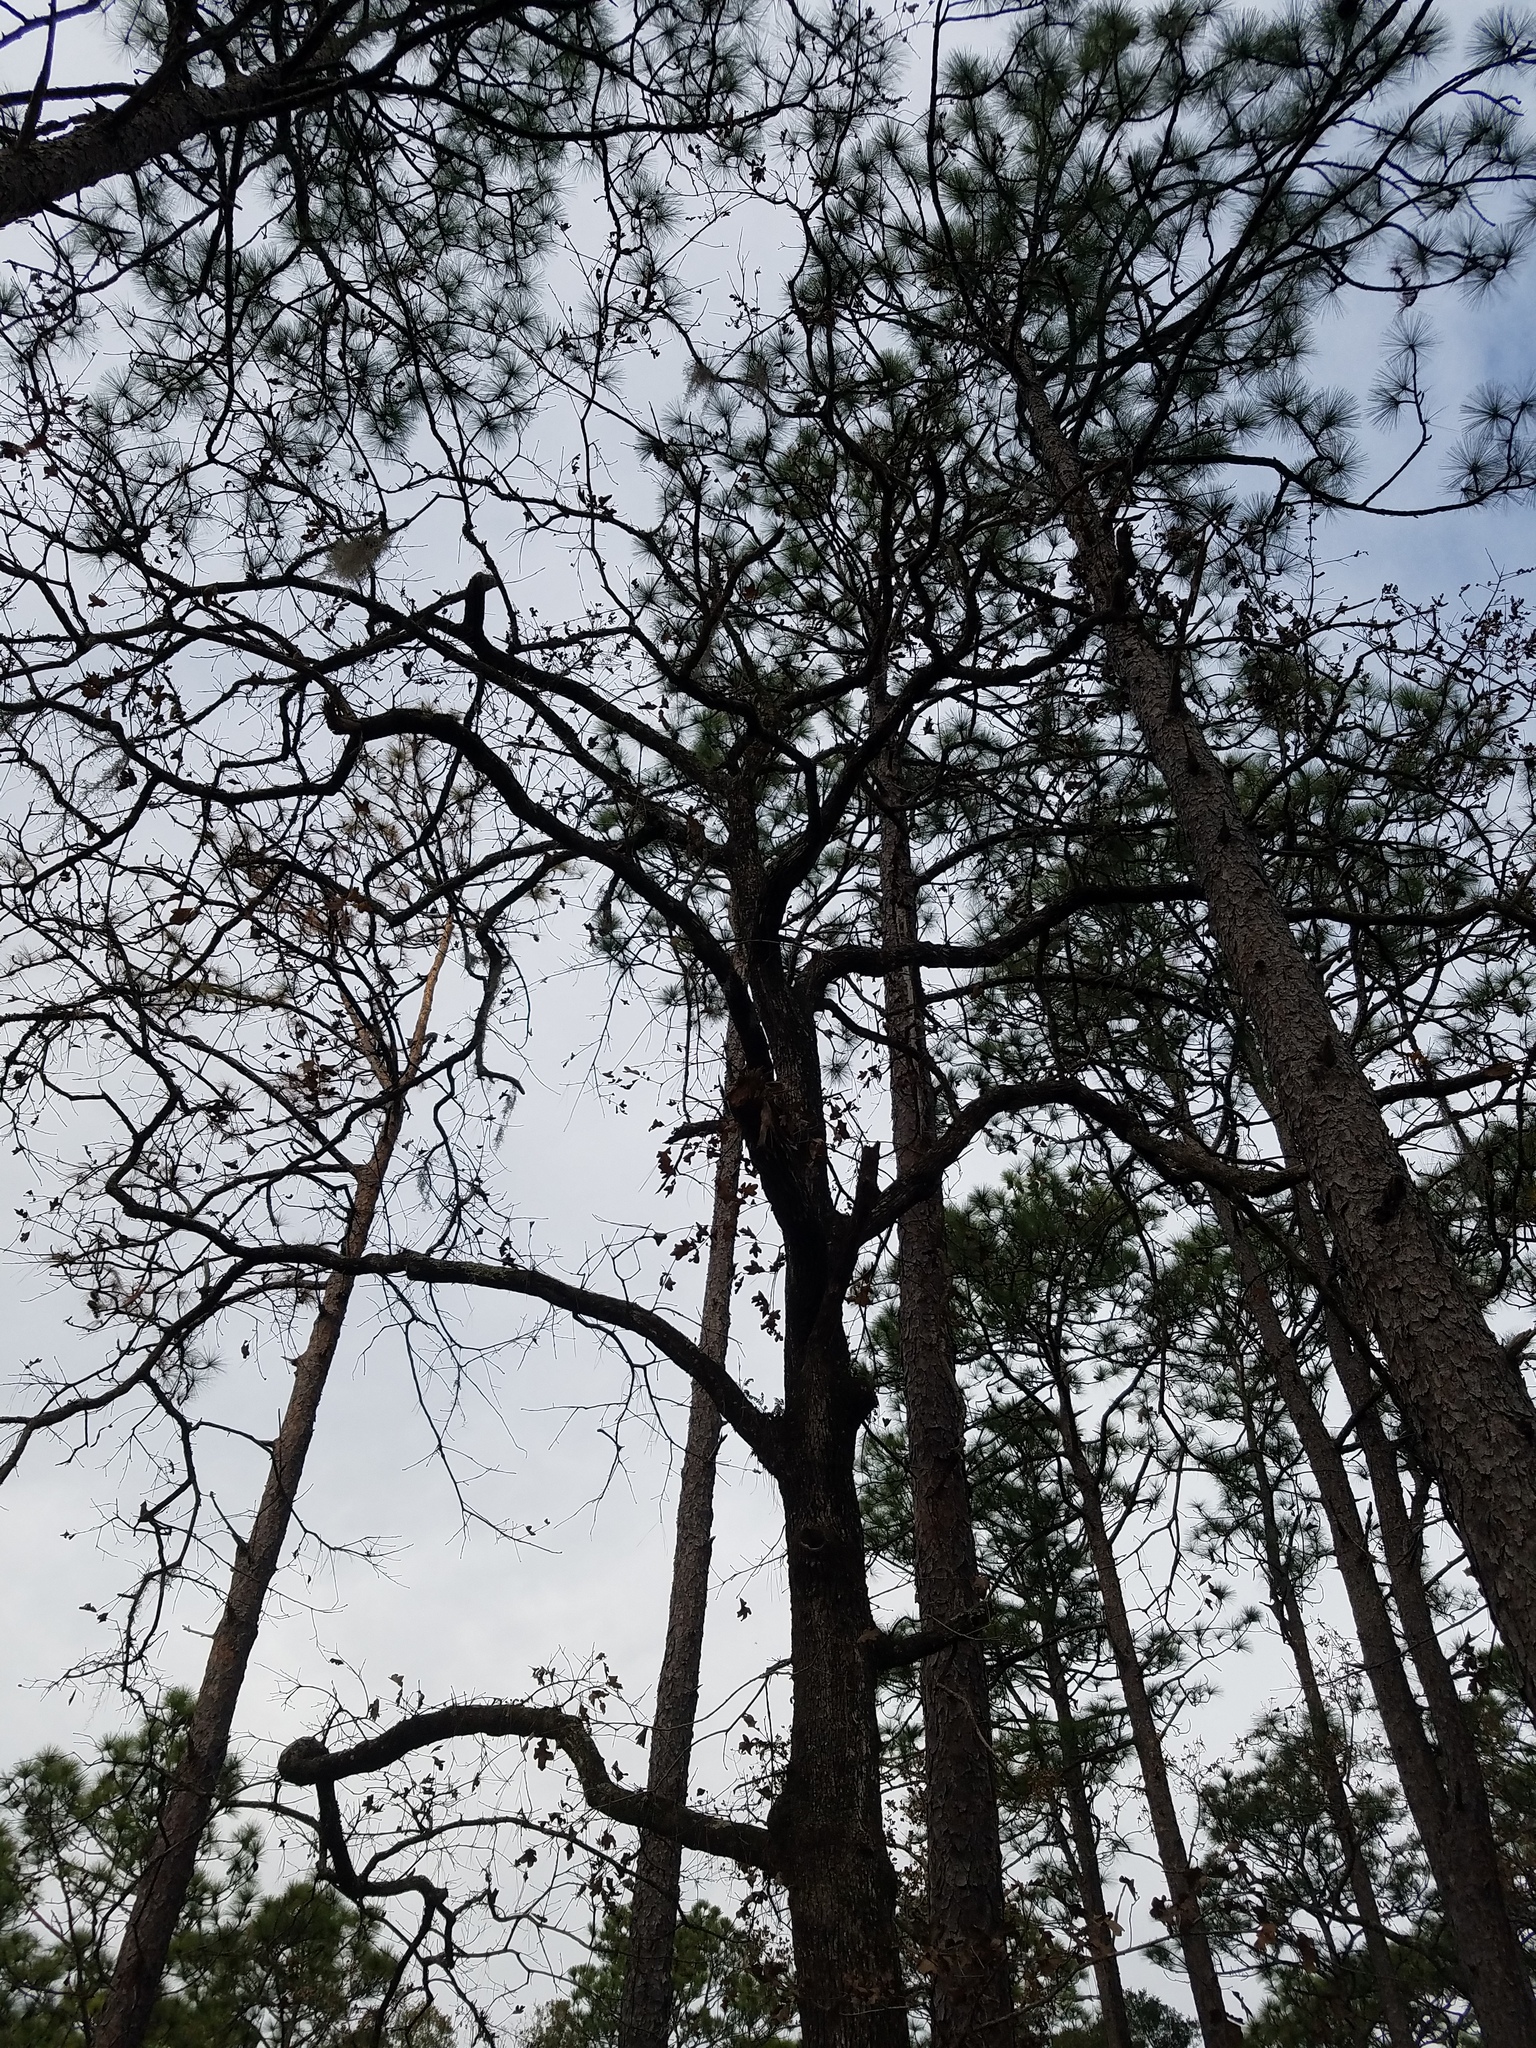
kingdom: Plantae
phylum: Tracheophyta
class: Magnoliopsida
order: Fagales
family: Fagaceae
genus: Quercus
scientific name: Quercus margaretiae
